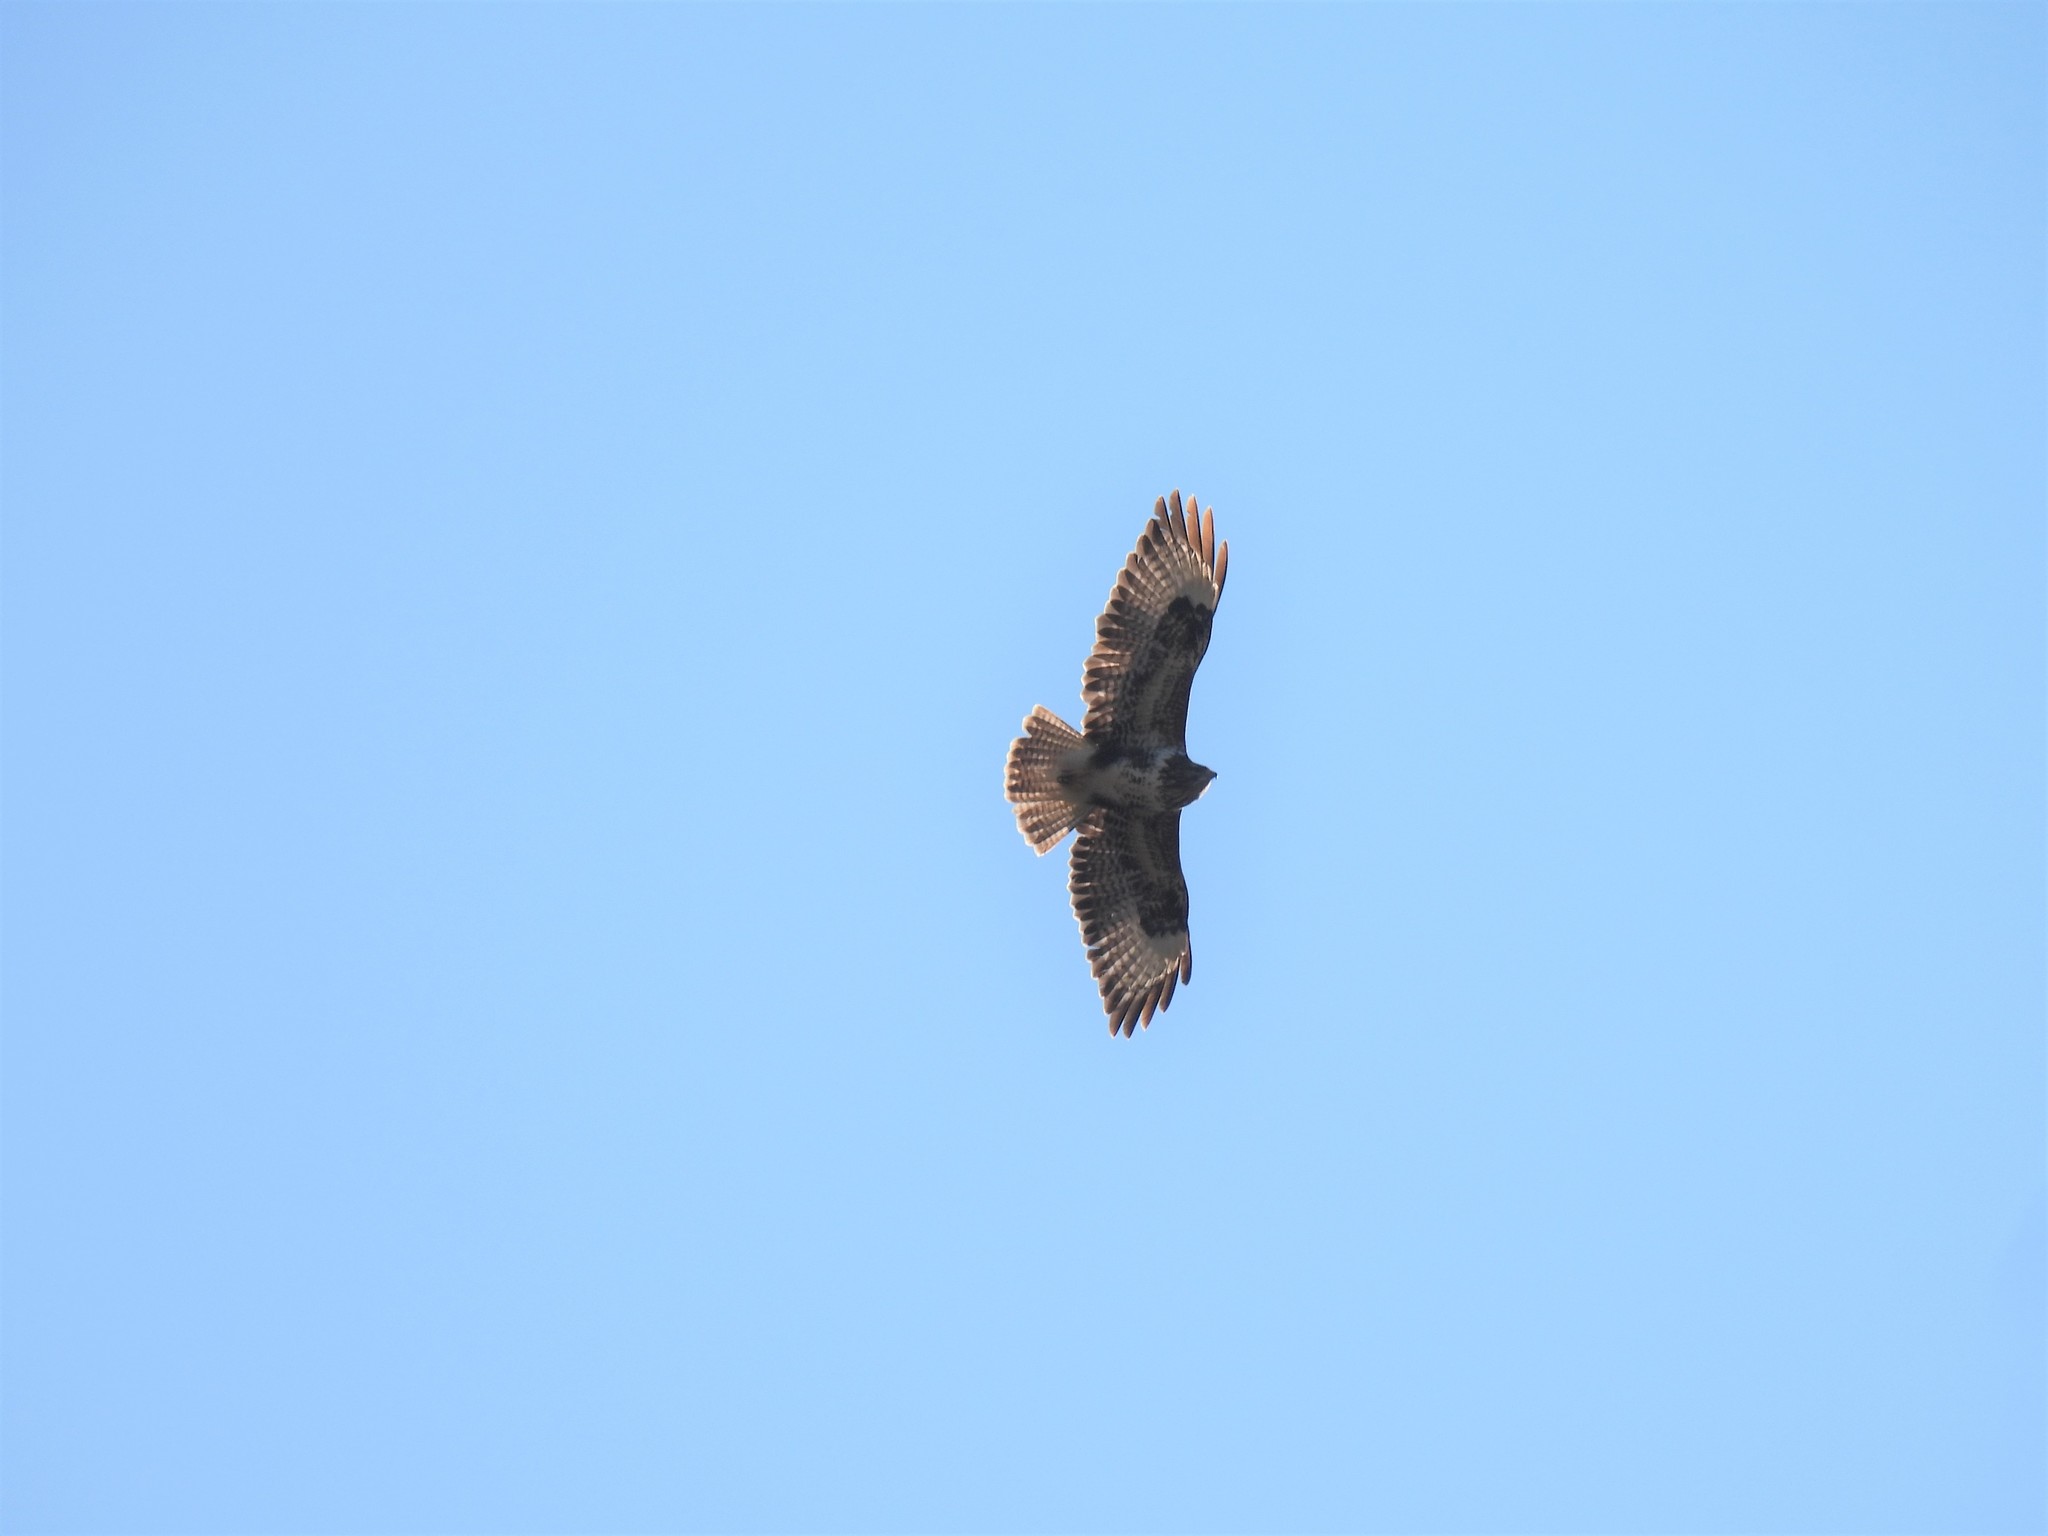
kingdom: Animalia
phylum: Chordata
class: Aves
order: Accipitriformes
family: Accipitridae
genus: Buteo
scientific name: Buteo buteo
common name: Common buzzard
